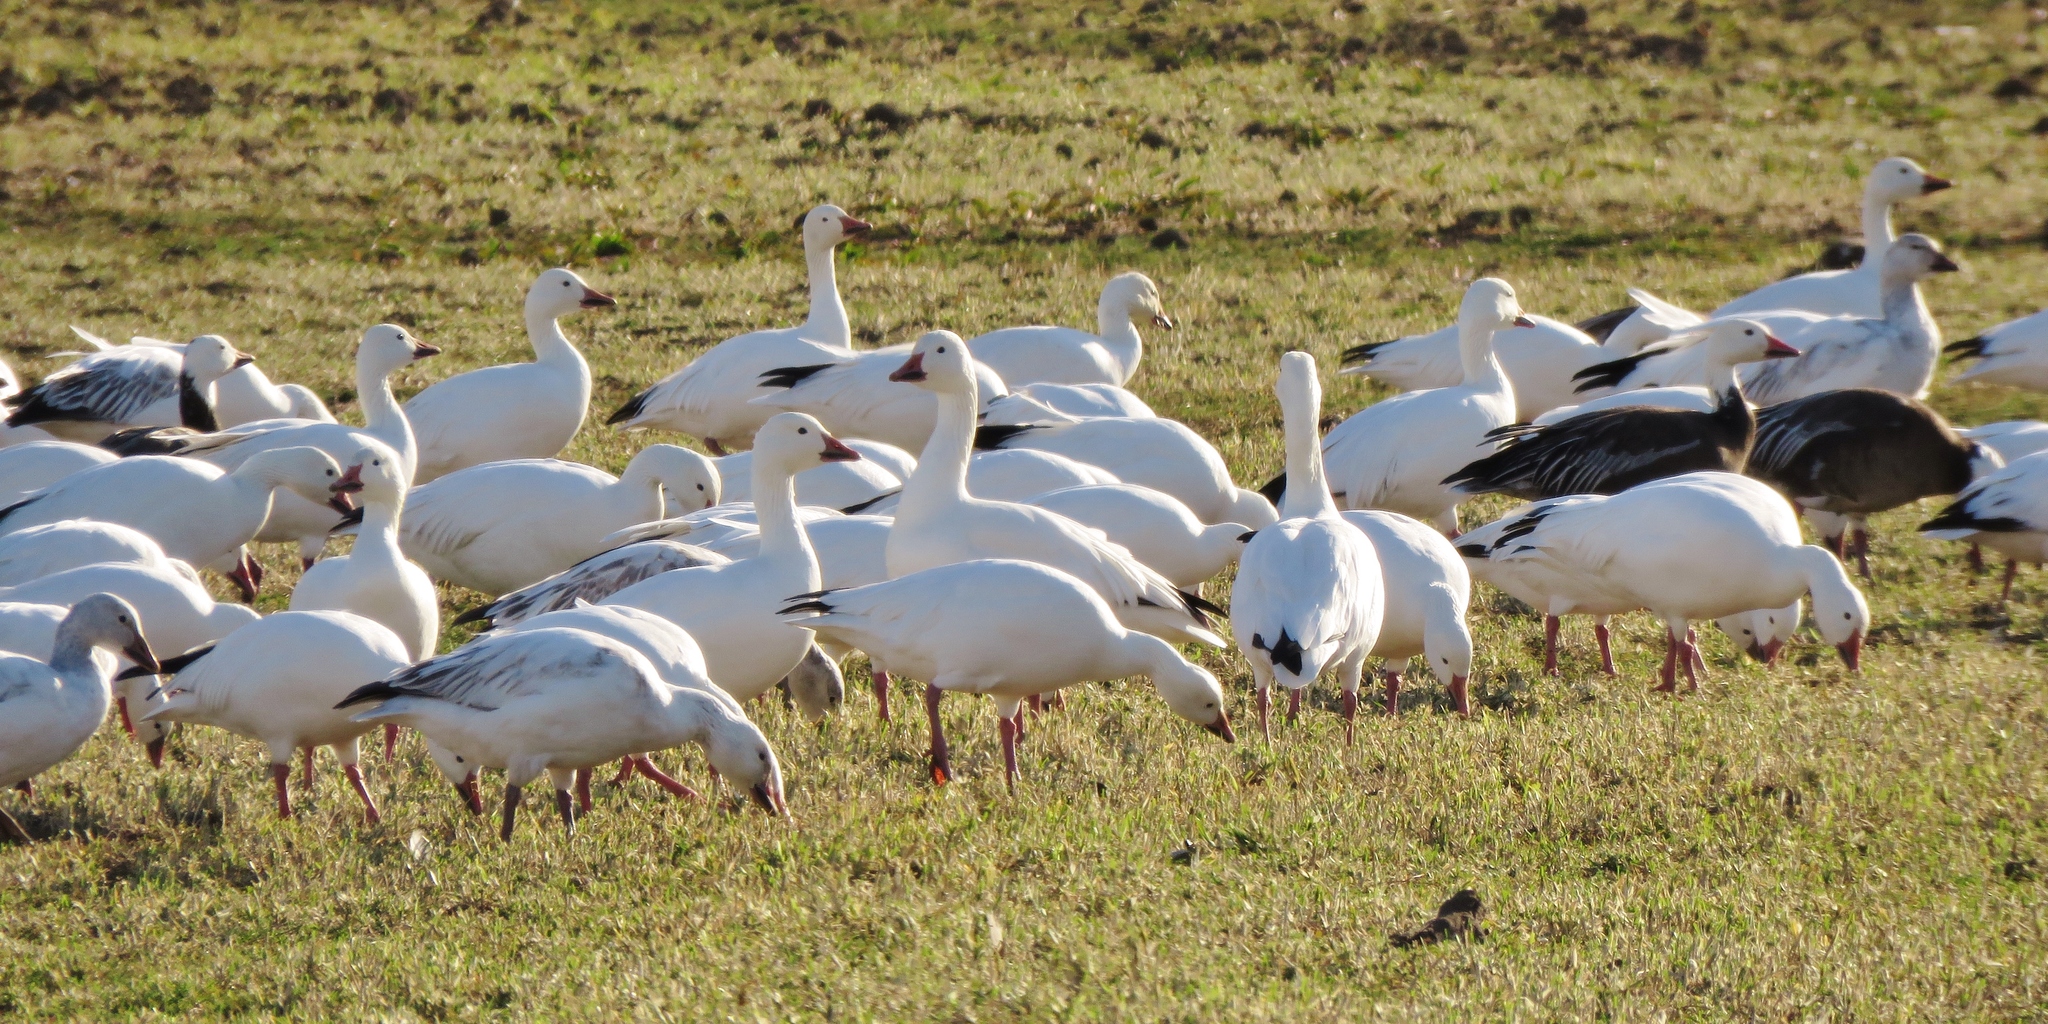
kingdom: Animalia
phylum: Chordata
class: Aves
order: Anseriformes
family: Anatidae
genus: Anser
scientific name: Anser caerulescens
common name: Snow goose
